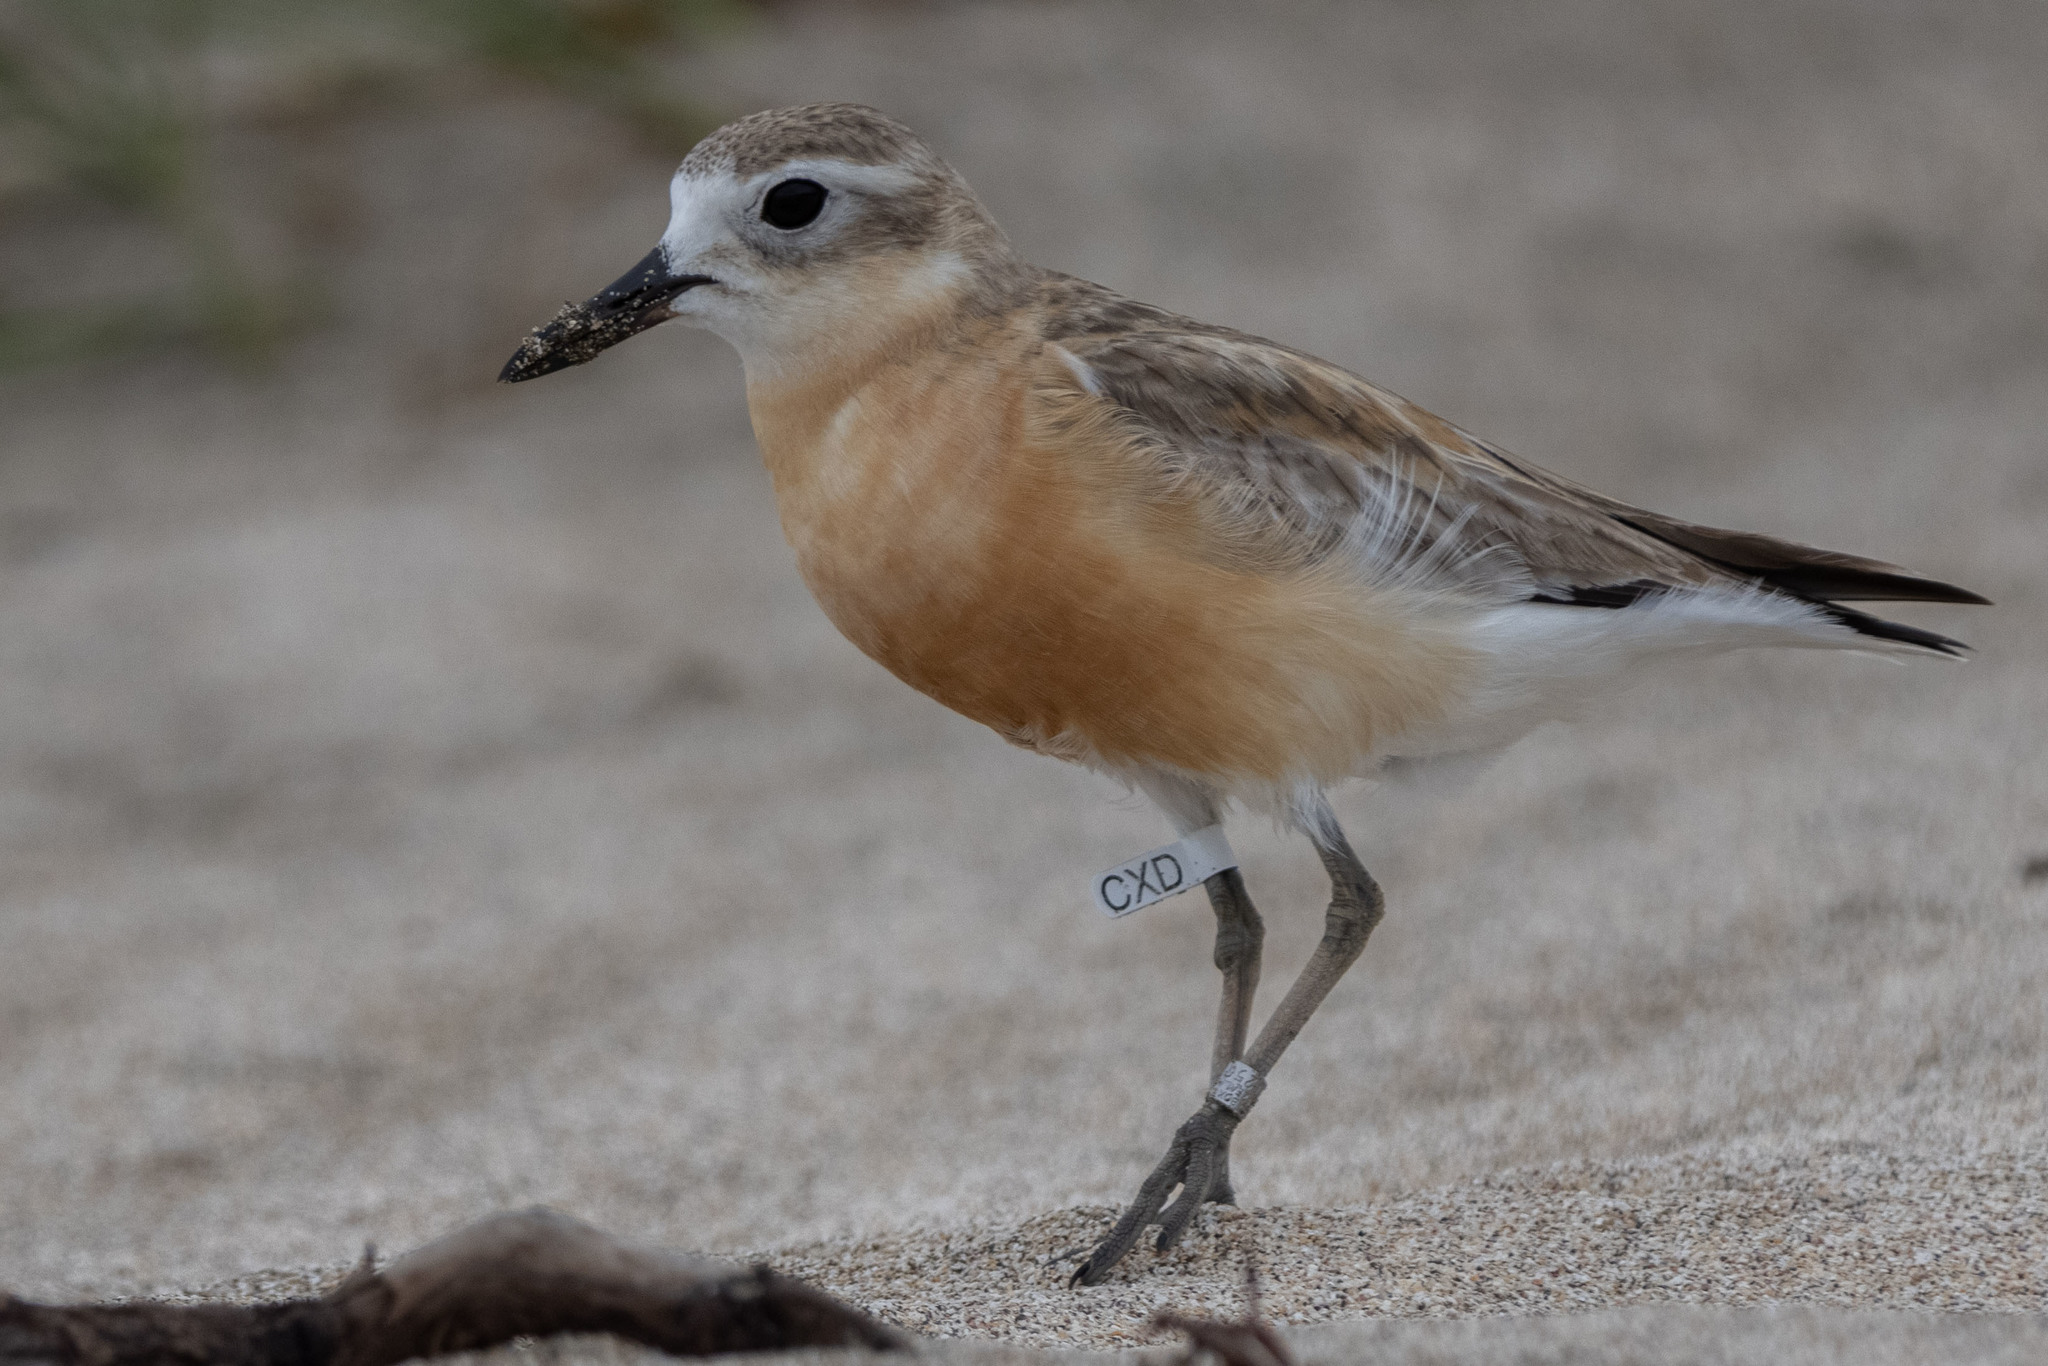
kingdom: Animalia
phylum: Chordata
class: Aves
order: Charadriiformes
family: Charadriidae
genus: Anarhynchus
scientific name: Anarhynchus
